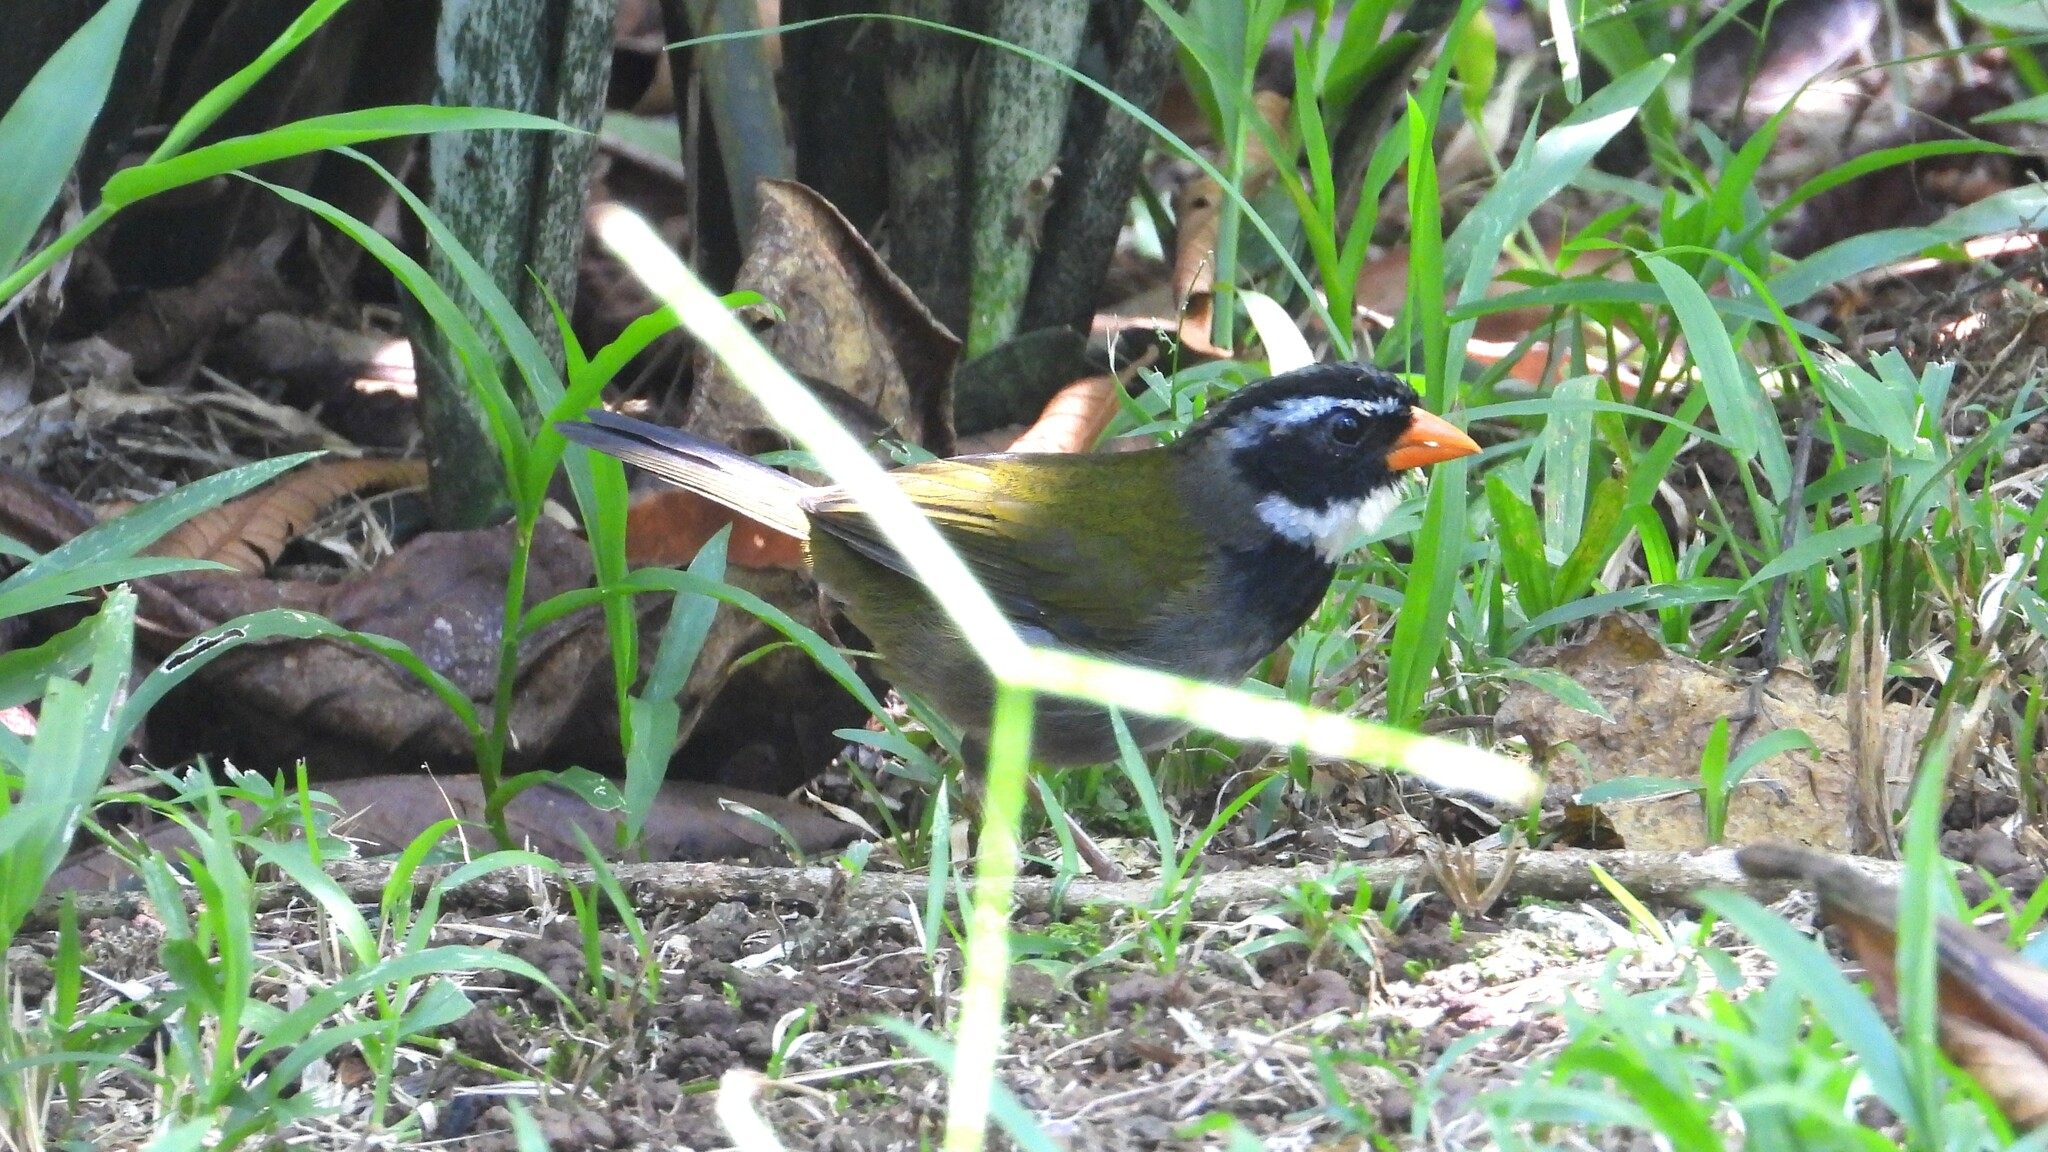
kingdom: Animalia
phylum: Chordata
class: Aves
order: Passeriformes
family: Passerellidae
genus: Arremon
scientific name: Arremon aurantiirostris
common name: Orange-billed sparrow
